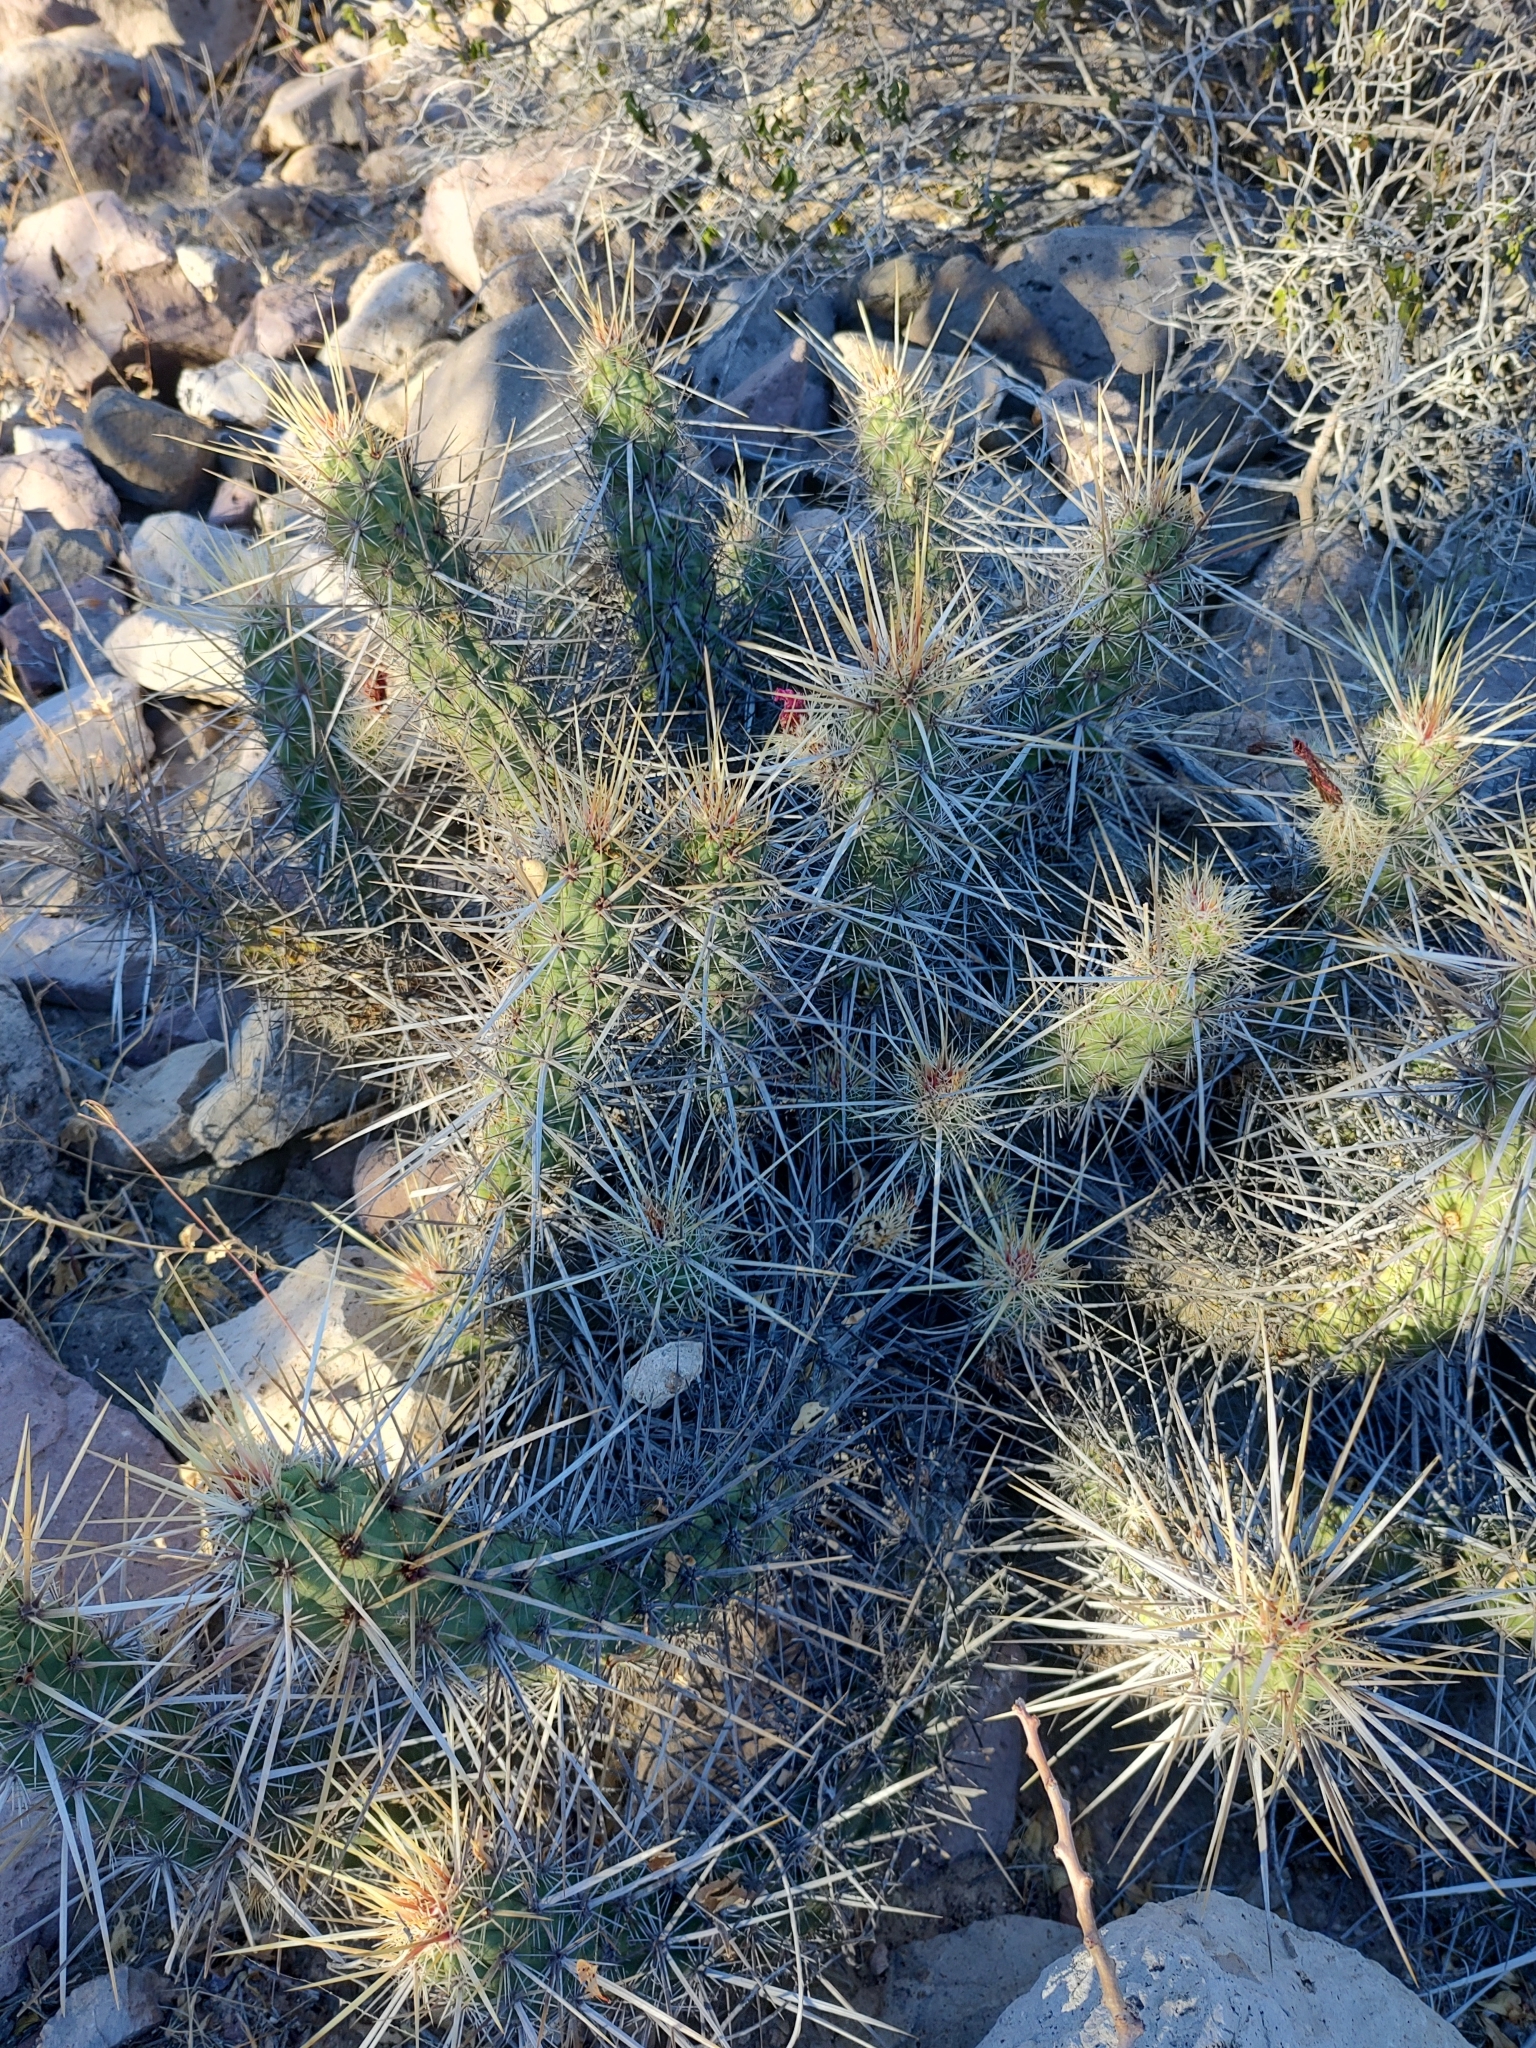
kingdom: Plantae
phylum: Tracheophyta
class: Magnoliopsida
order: Caryophyllales
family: Cactaceae
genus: Echinocereus
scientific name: Echinocereus brandegeei
